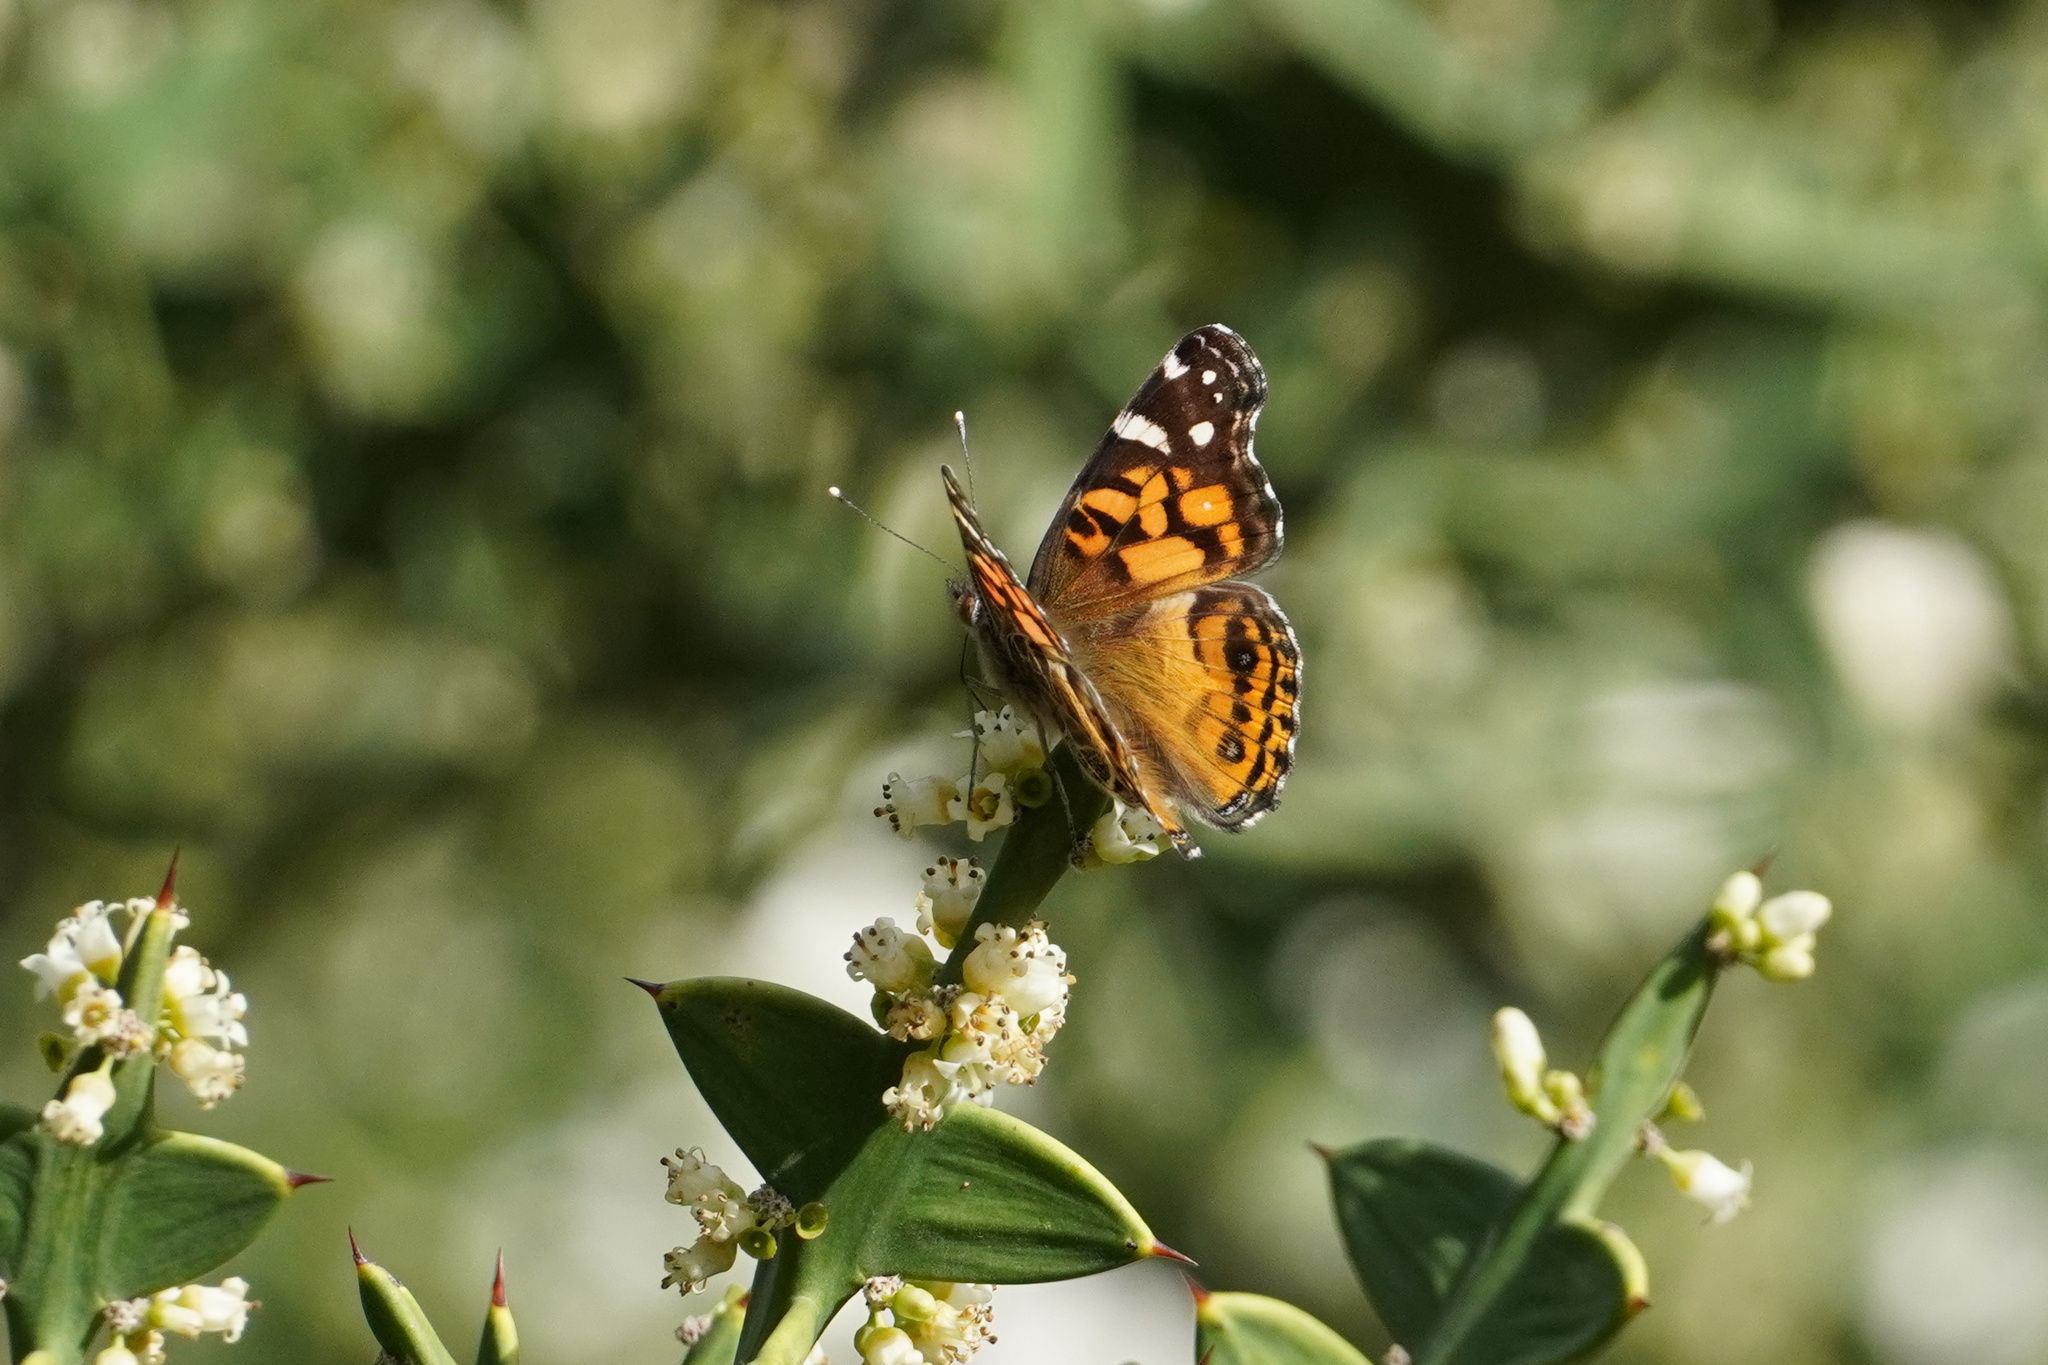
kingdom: Animalia
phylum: Arthropoda
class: Insecta
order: Lepidoptera
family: Nymphalidae
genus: Vanessa
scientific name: Vanessa virginiensis
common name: American lady
